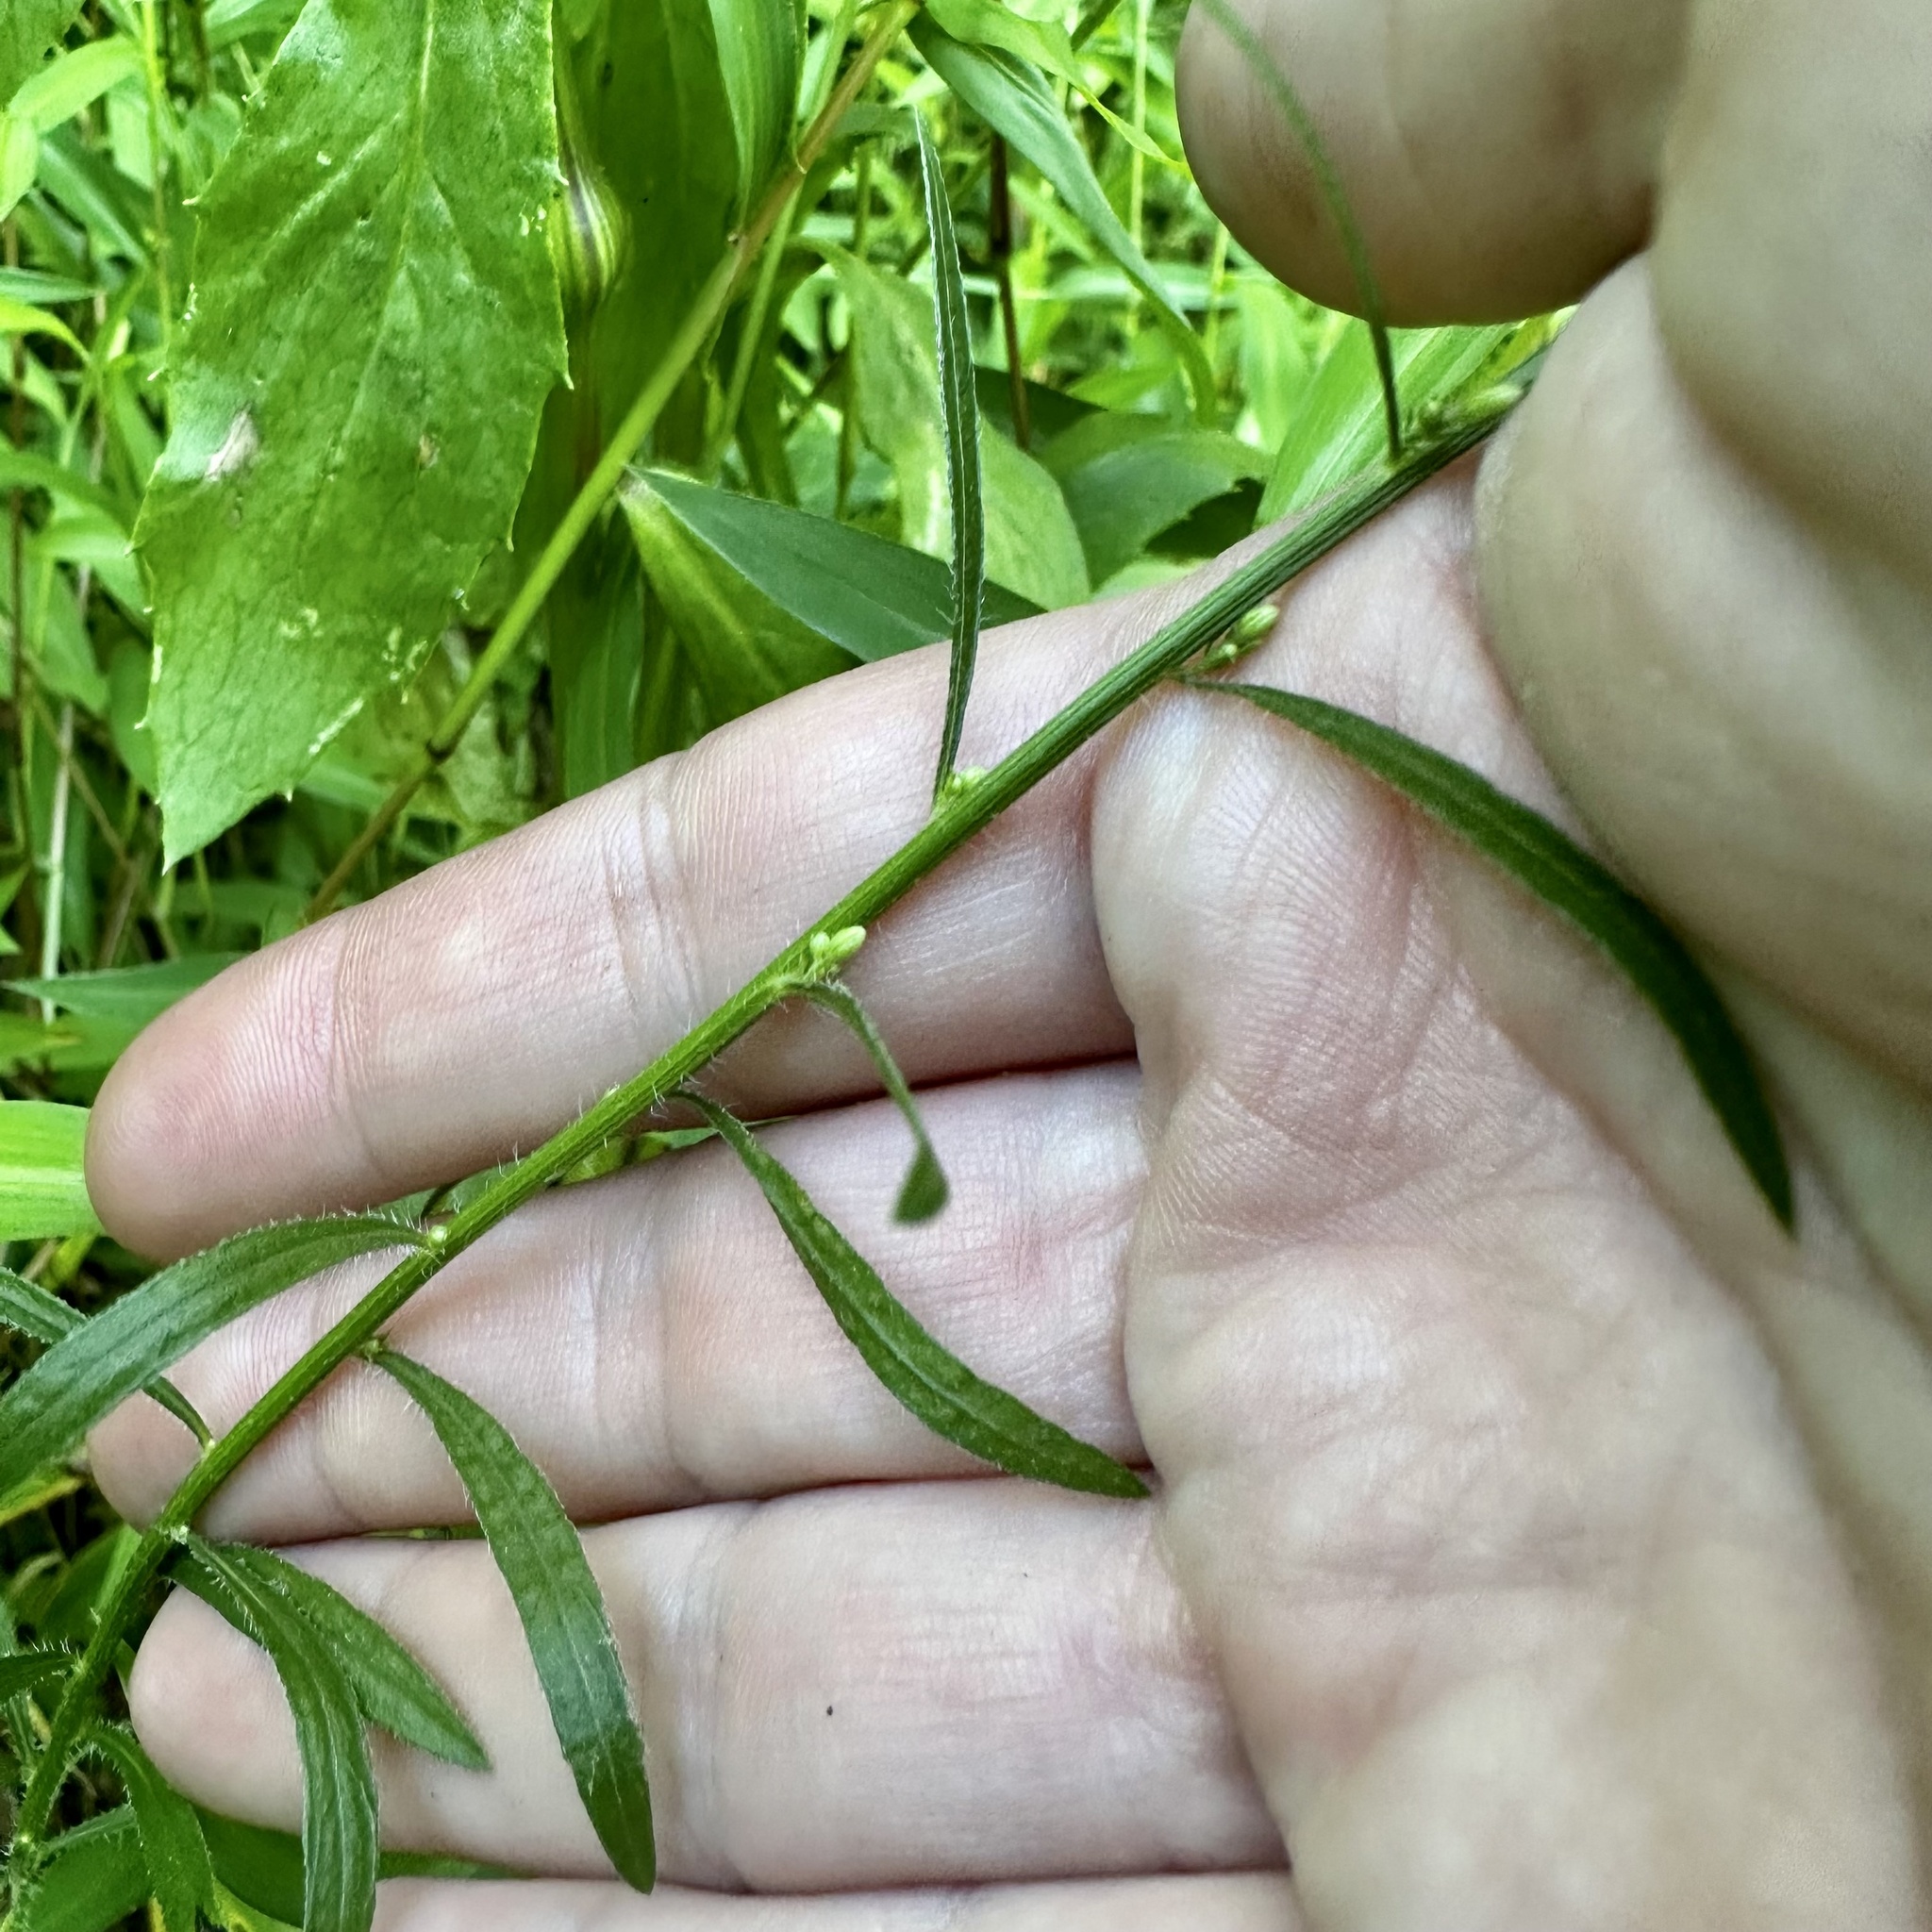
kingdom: Plantae
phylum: Tracheophyta
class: Magnoliopsida
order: Asterales
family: Asteraceae
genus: Erigeron
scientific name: Erigeron canadensis
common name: Canadian fleabane
